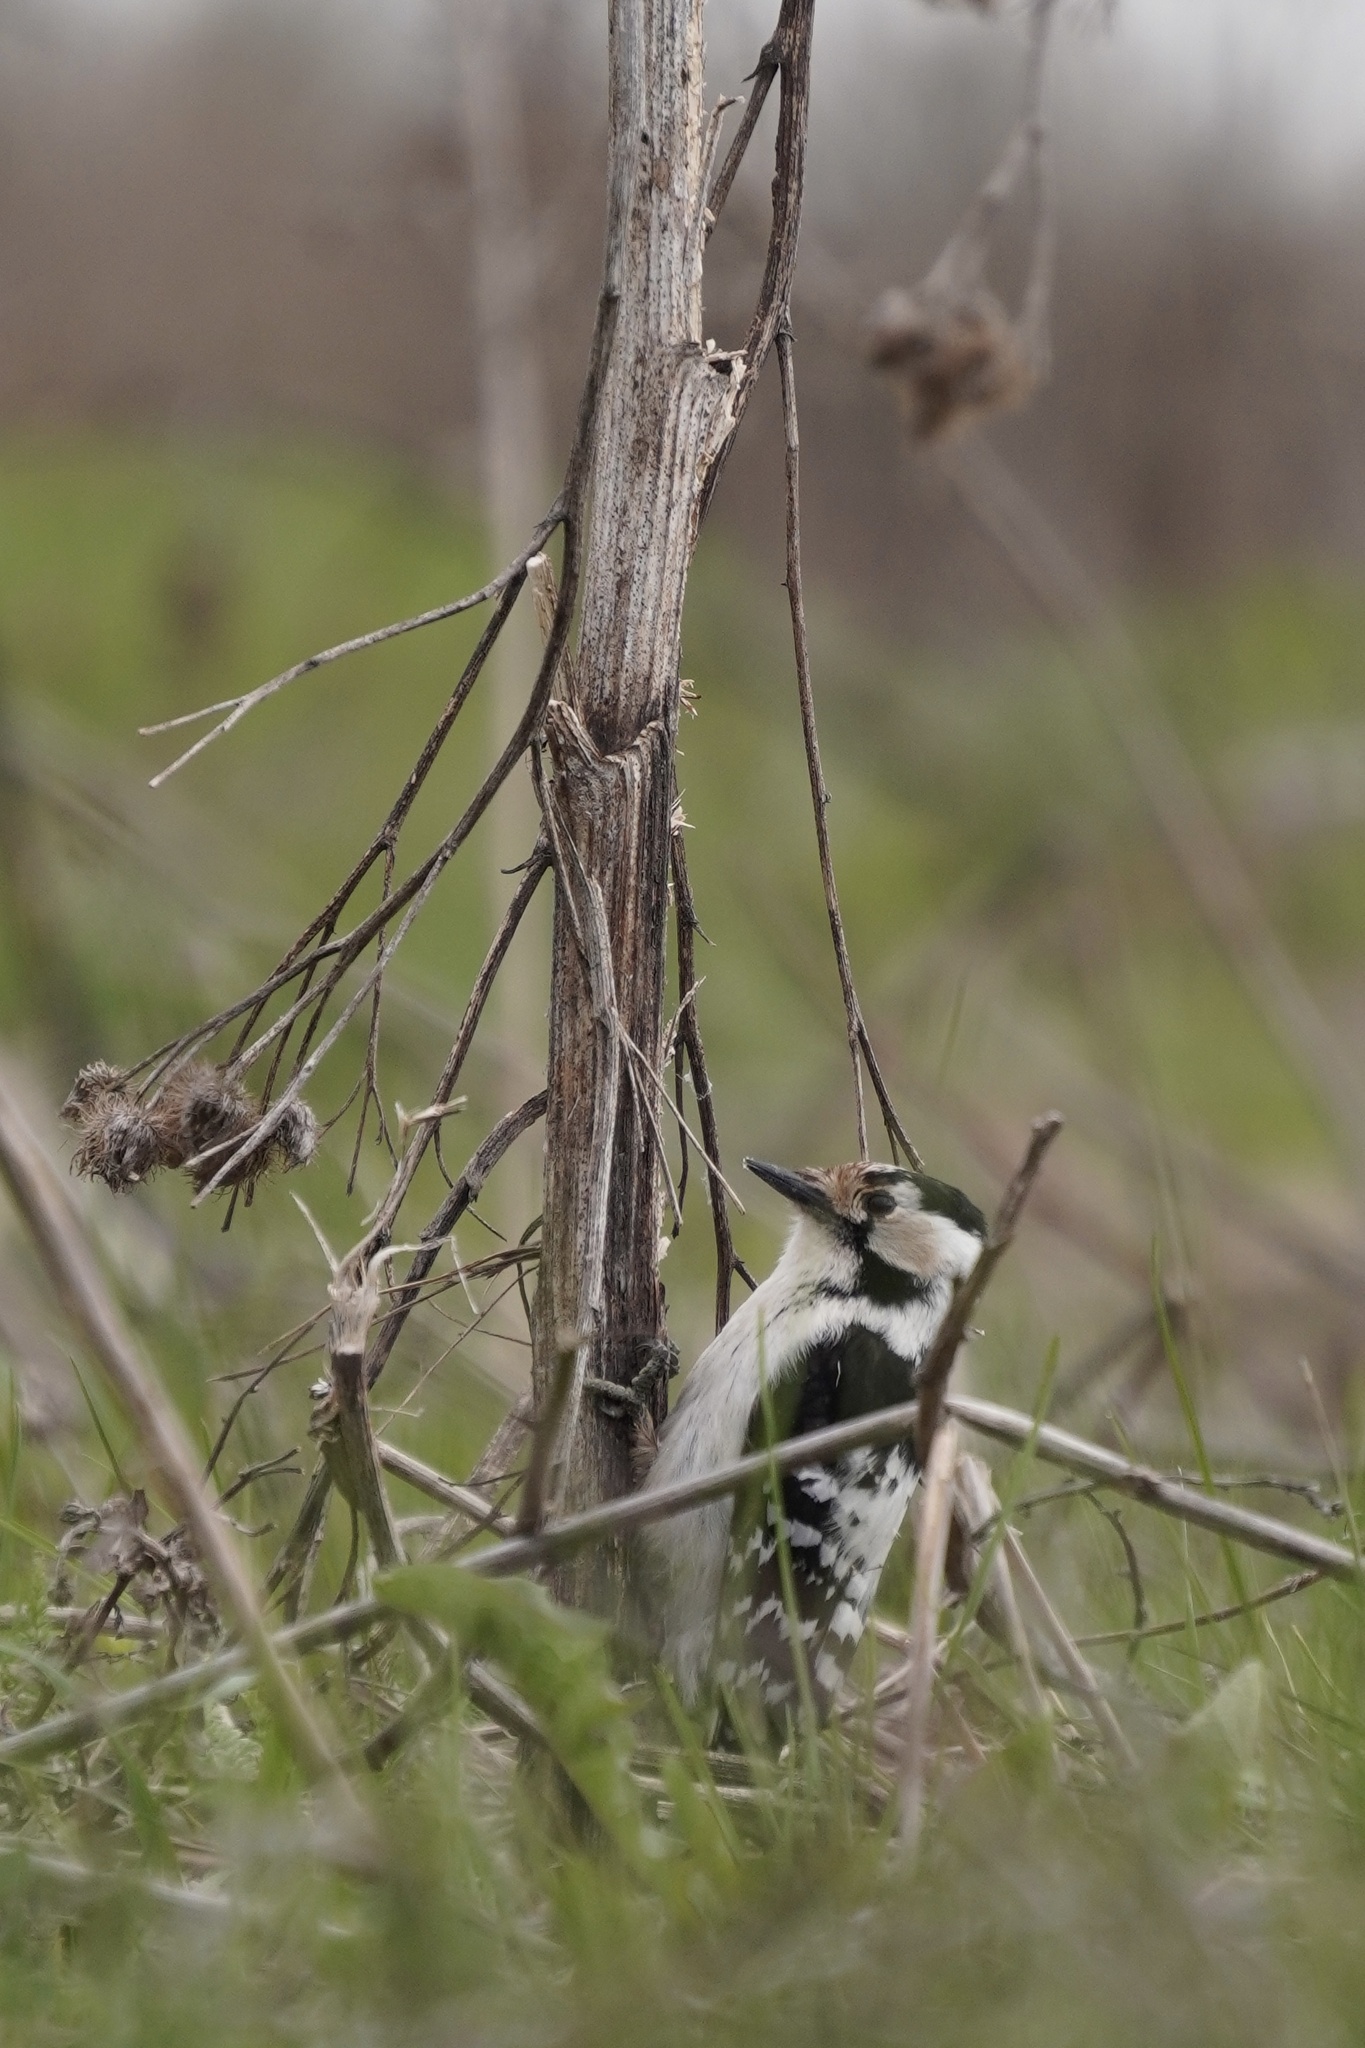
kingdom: Animalia
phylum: Chordata
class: Aves
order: Piciformes
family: Picidae
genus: Dryobates
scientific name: Dryobates minor
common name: Lesser spotted woodpecker
